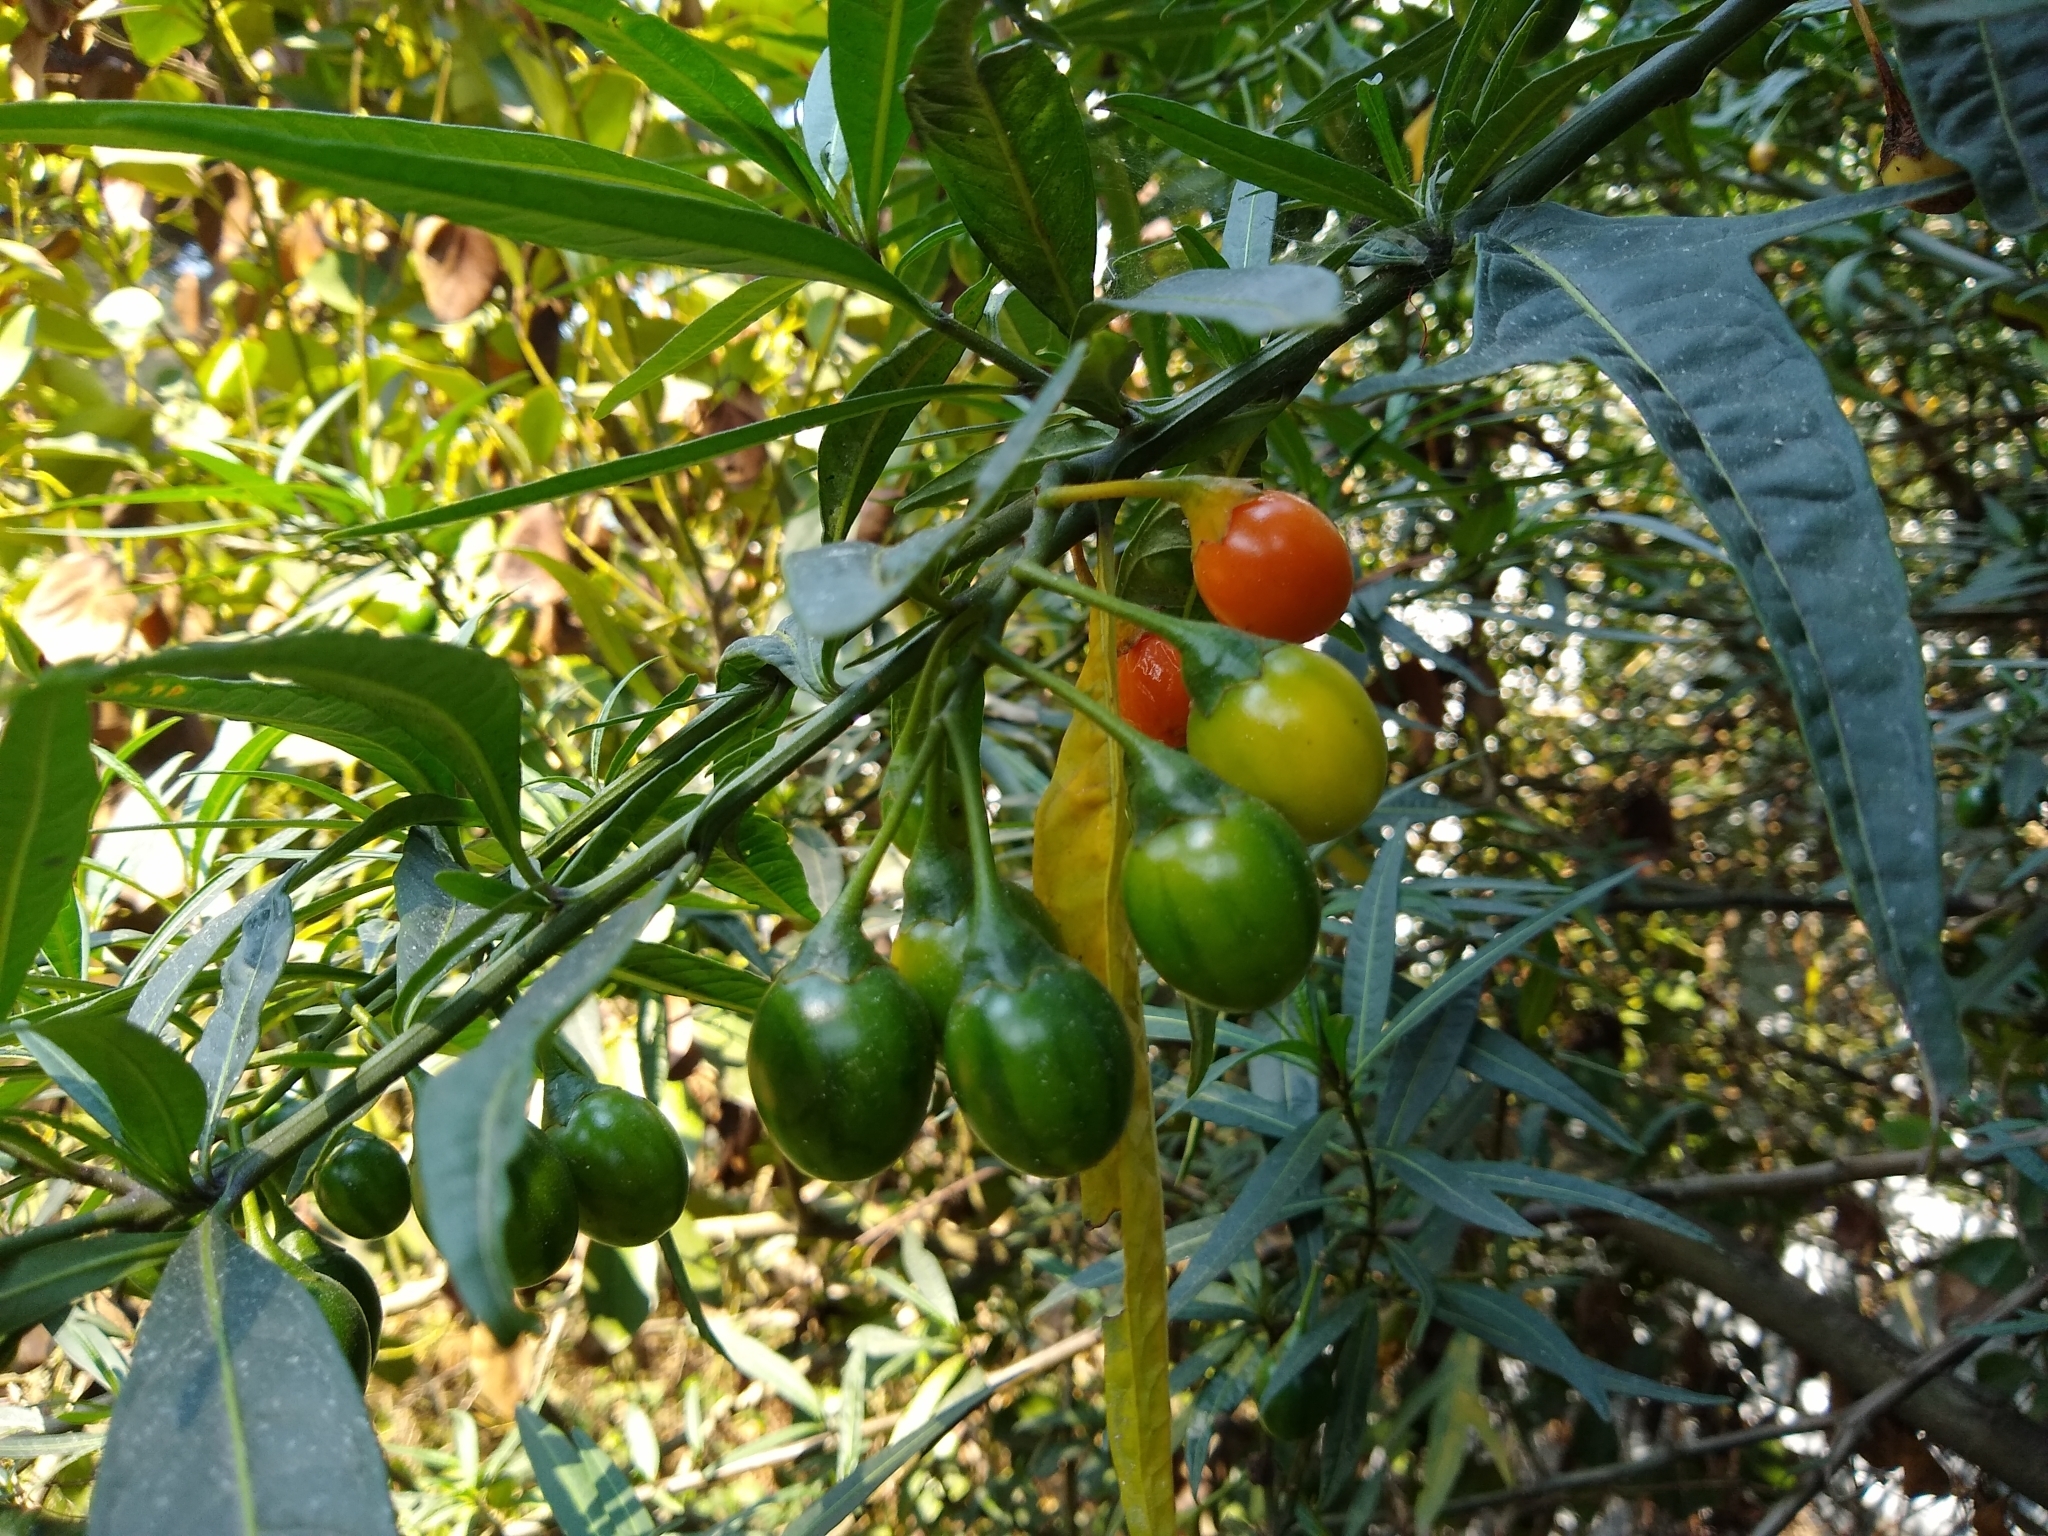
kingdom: Plantae
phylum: Tracheophyta
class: Magnoliopsida
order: Solanales
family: Solanaceae
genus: Solanum
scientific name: Solanum laciniatum
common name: Kangaroo-apple
